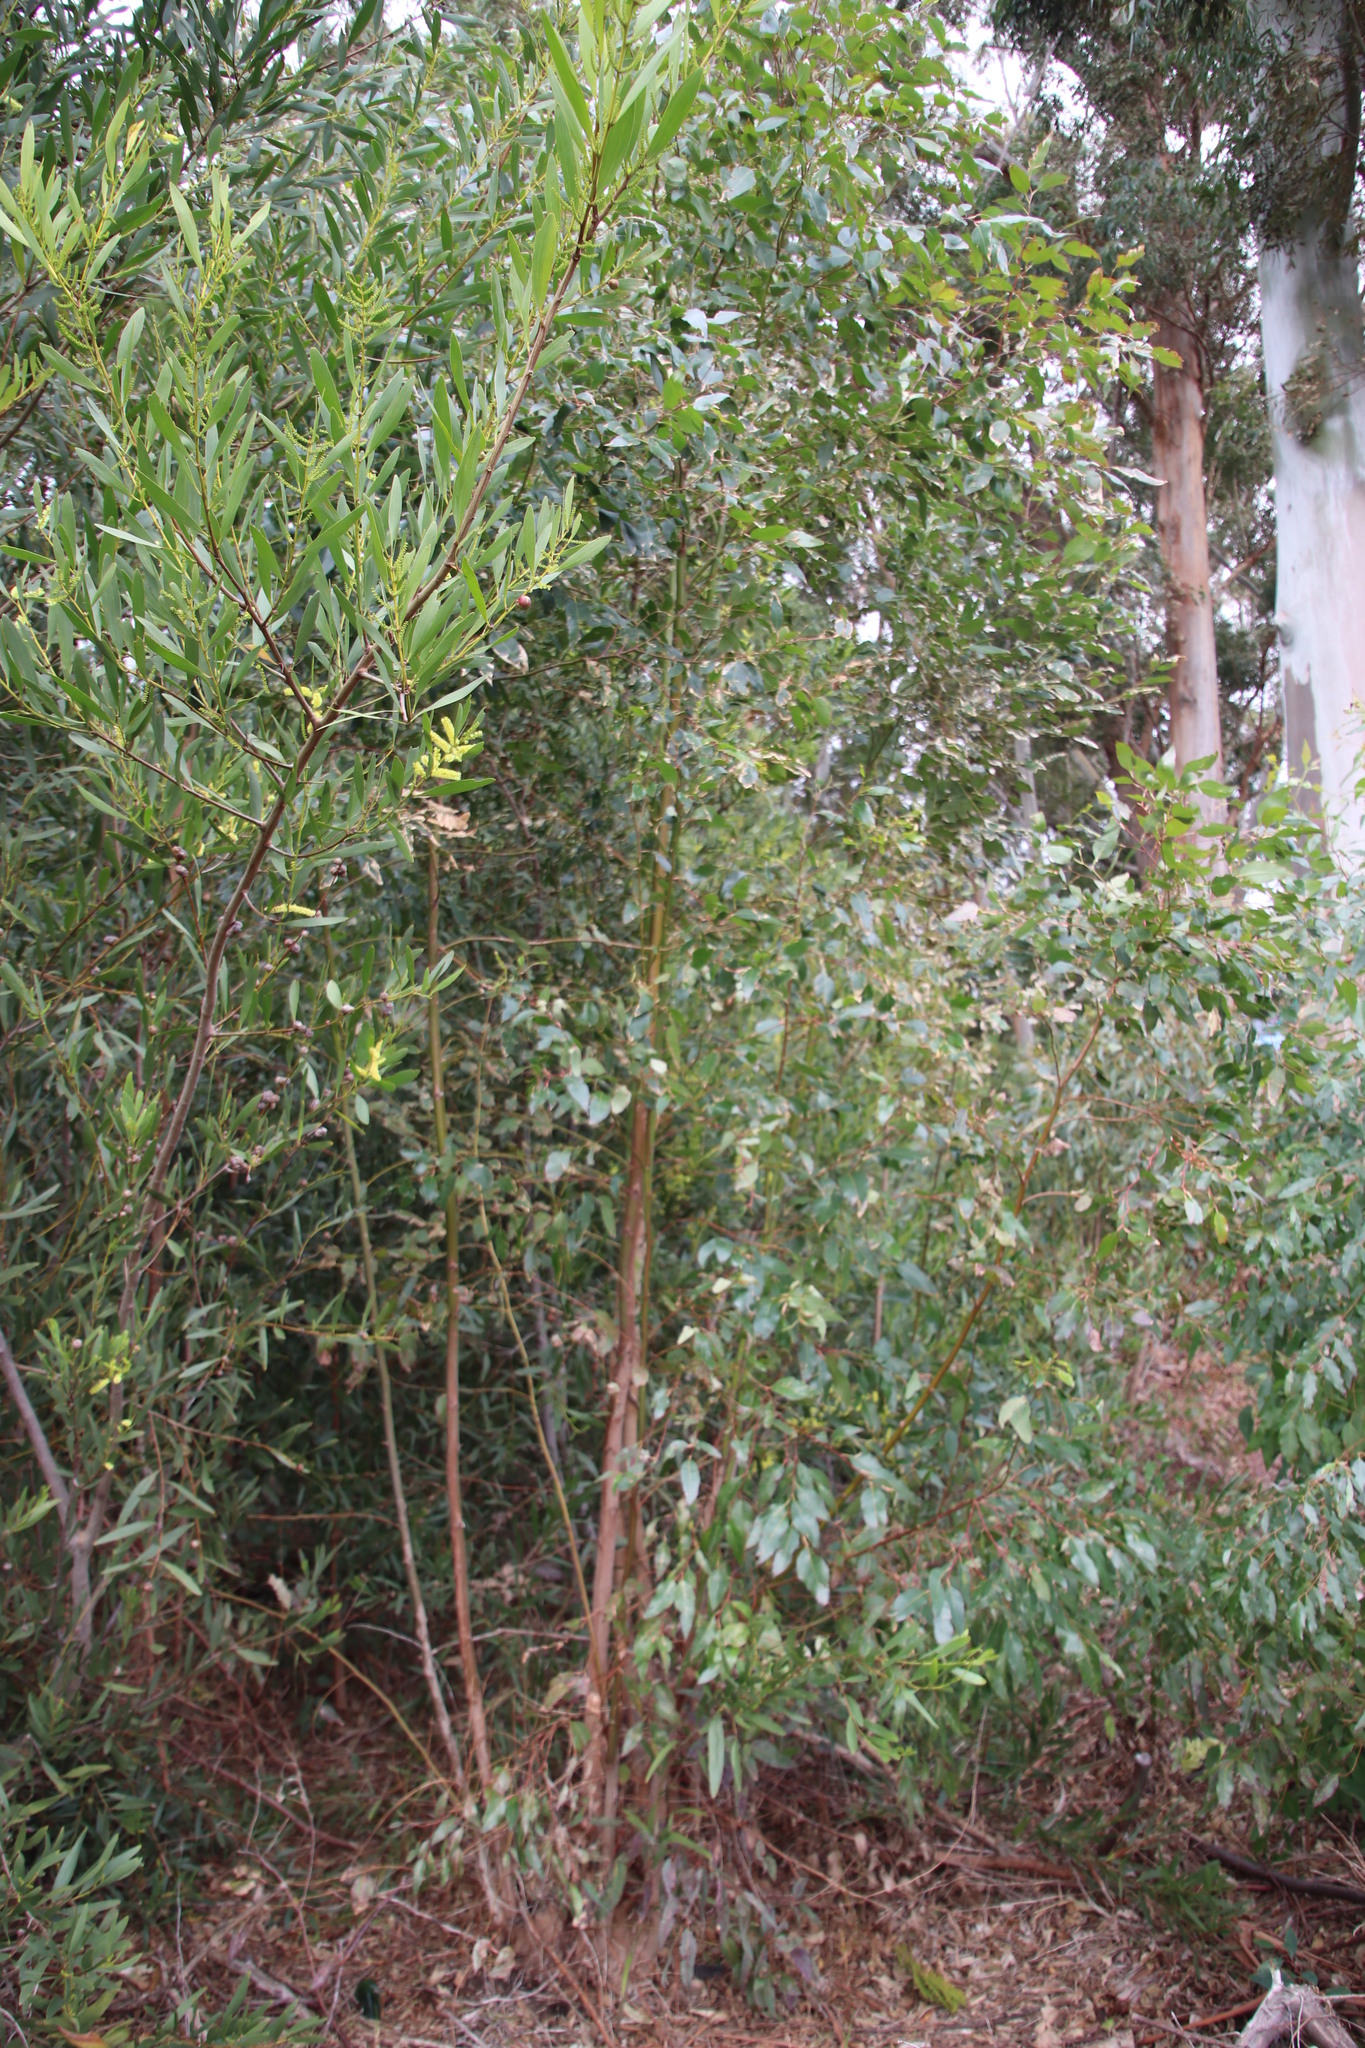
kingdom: Plantae
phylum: Tracheophyta
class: Magnoliopsida
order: Fabales
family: Fabaceae
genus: Acacia
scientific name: Acacia longifolia
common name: Sydney golden wattle
